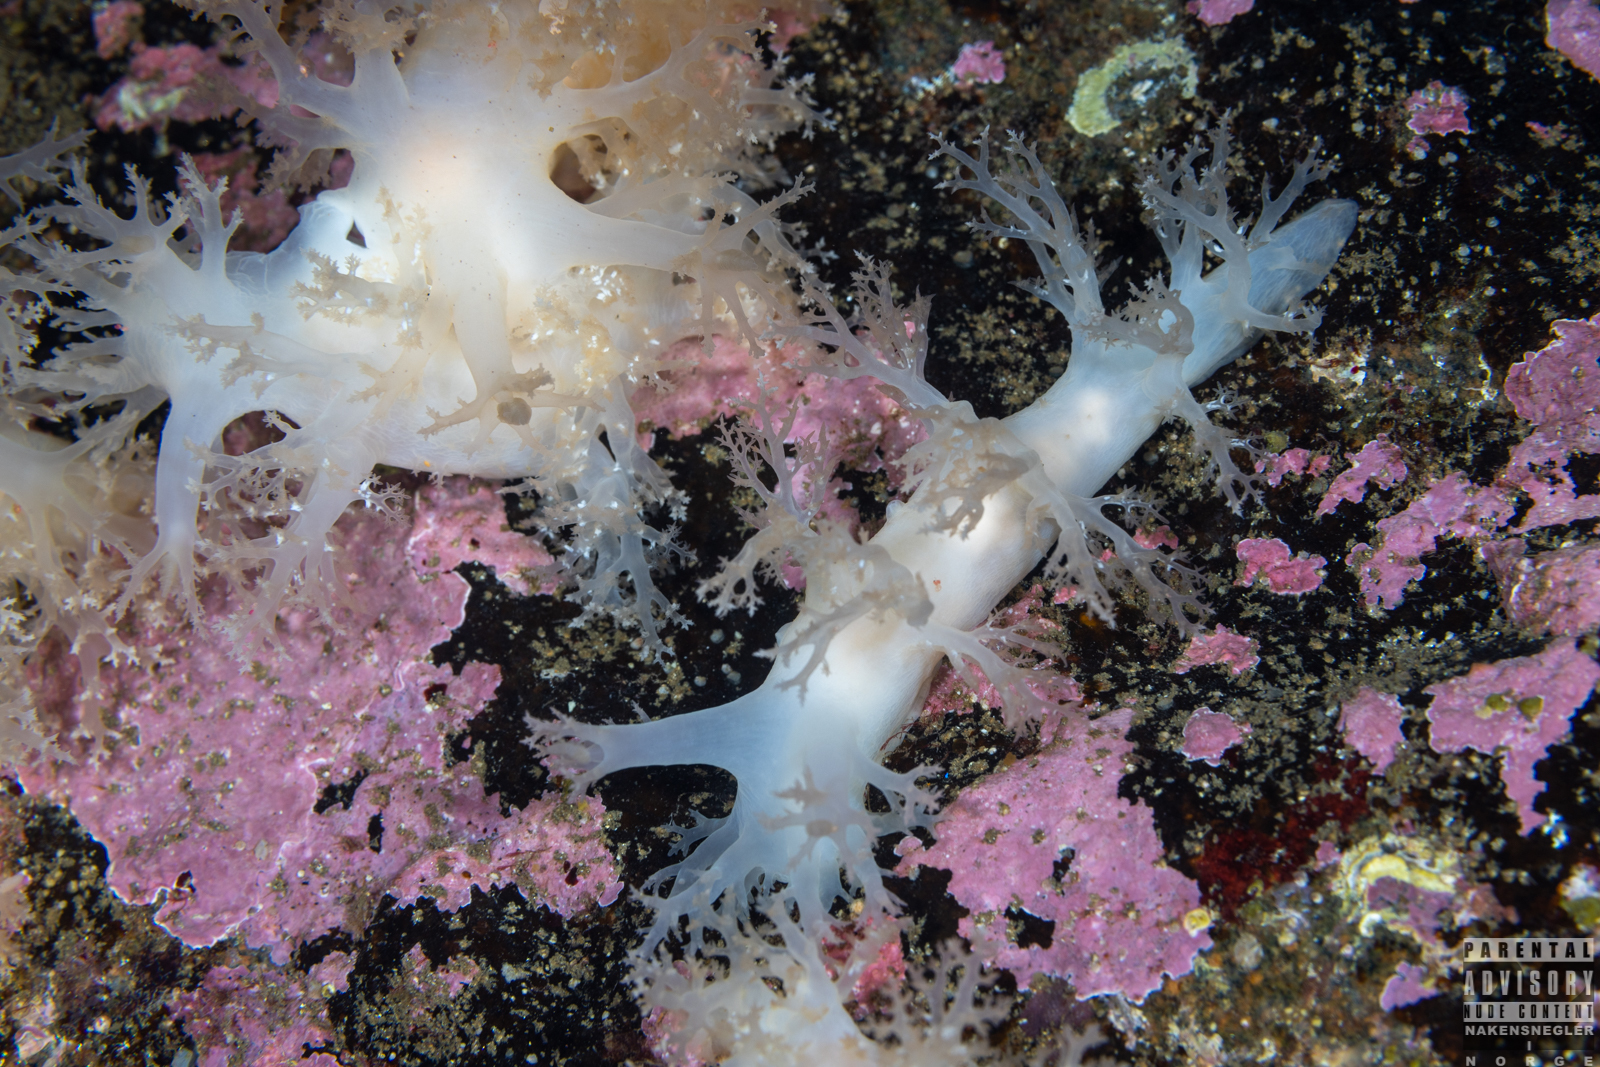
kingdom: Animalia
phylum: Mollusca
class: Gastropoda
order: Nudibranchia
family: Dendronotidae
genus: Dendronotus
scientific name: Dendronotus lacteus
